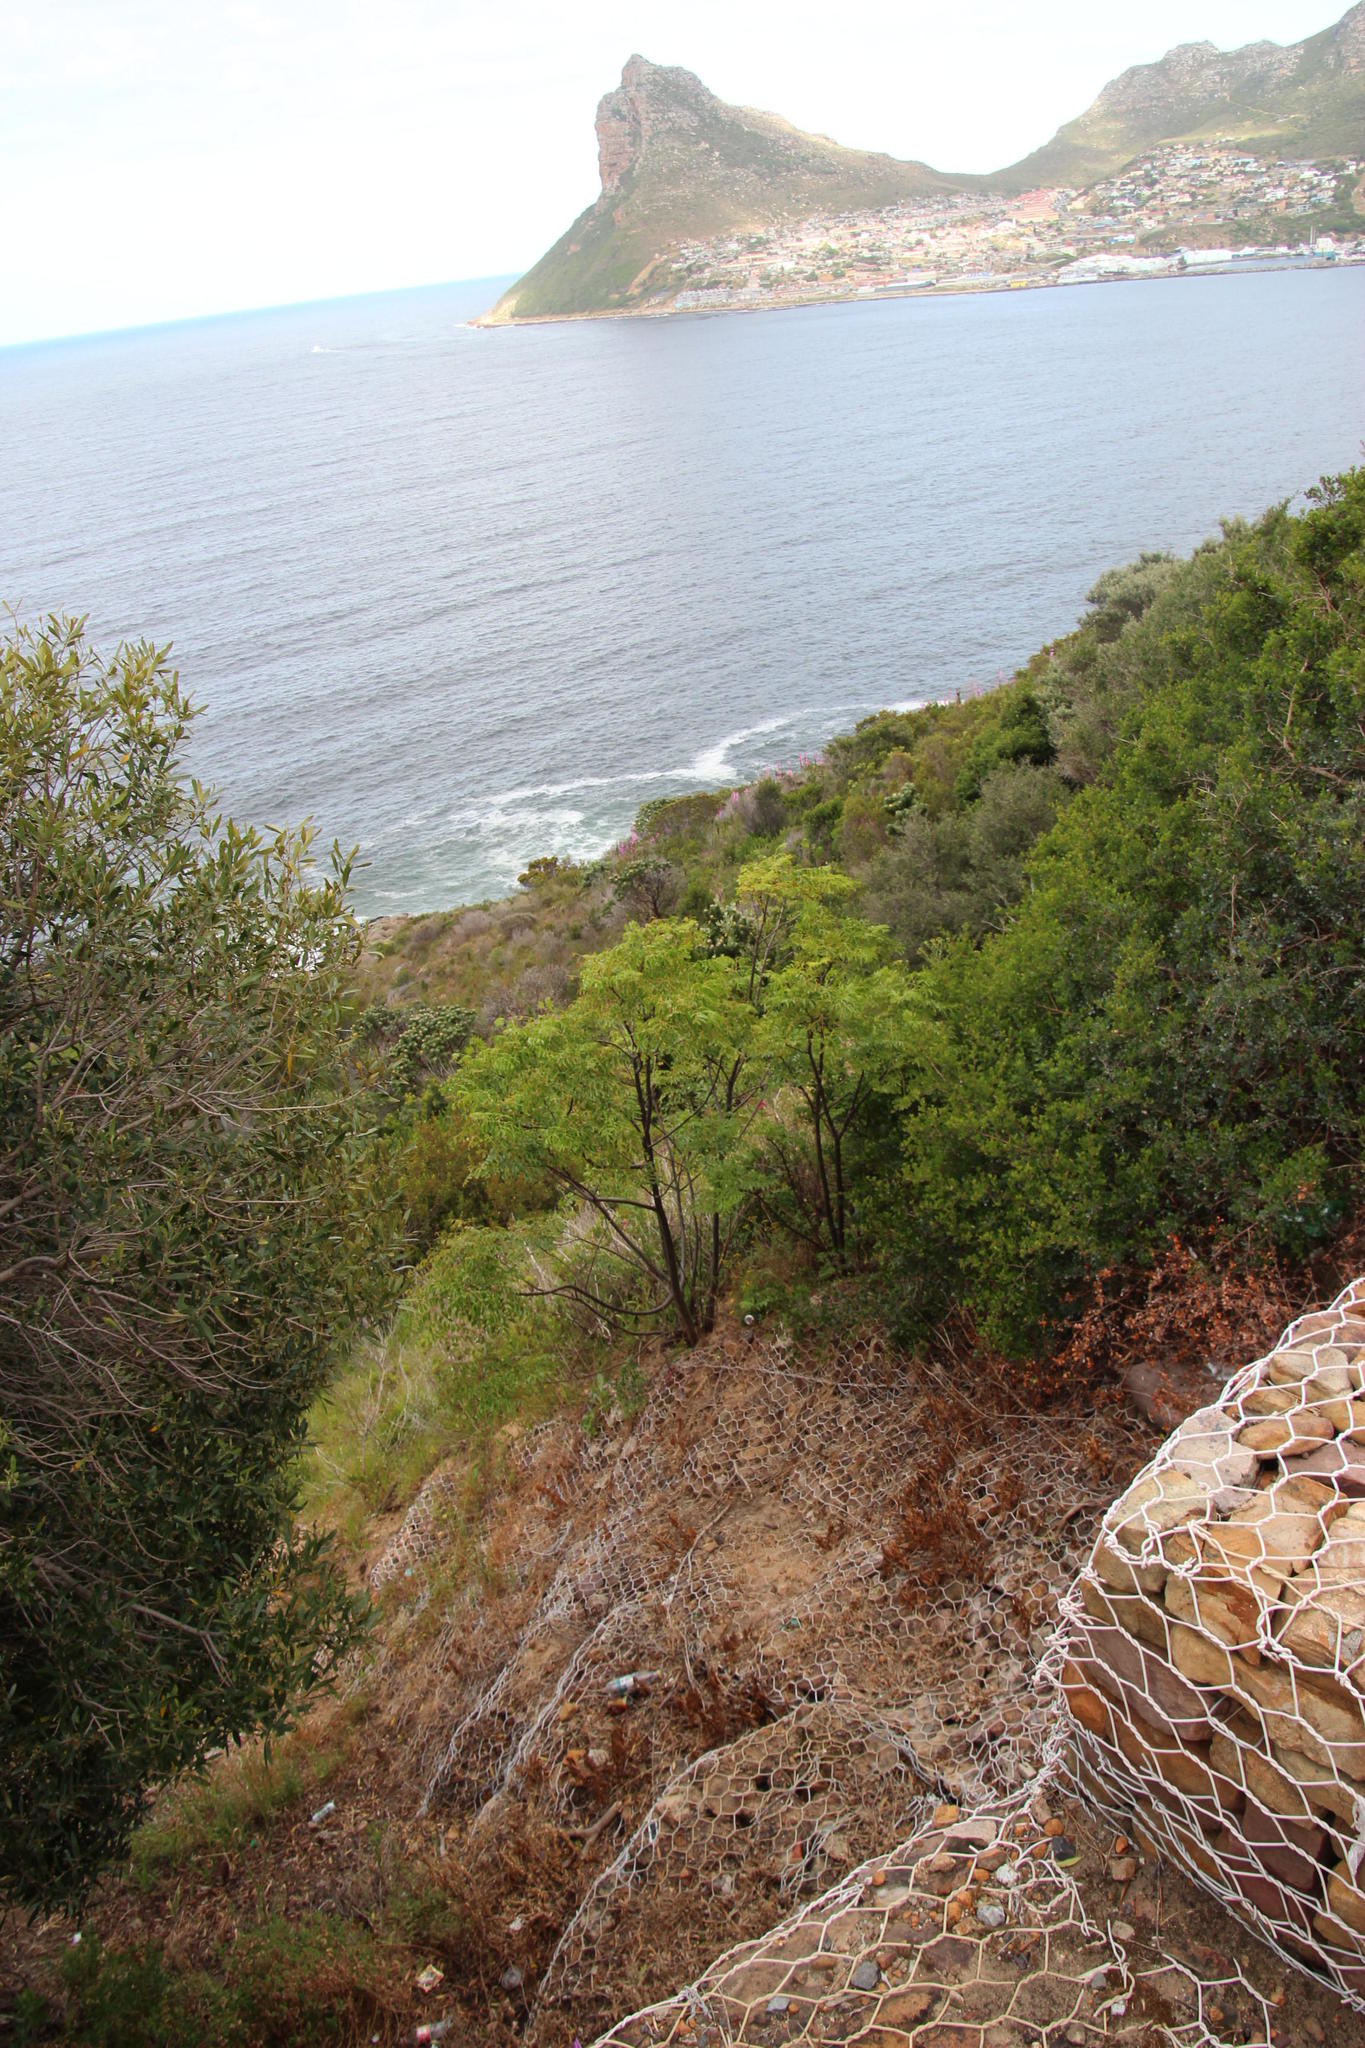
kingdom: Plantae
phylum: Tracheophyta
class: Magnoliopsida
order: Sapindales
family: Meliaceae
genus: Melia
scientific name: Melia azedarach
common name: Chinaberrytree
